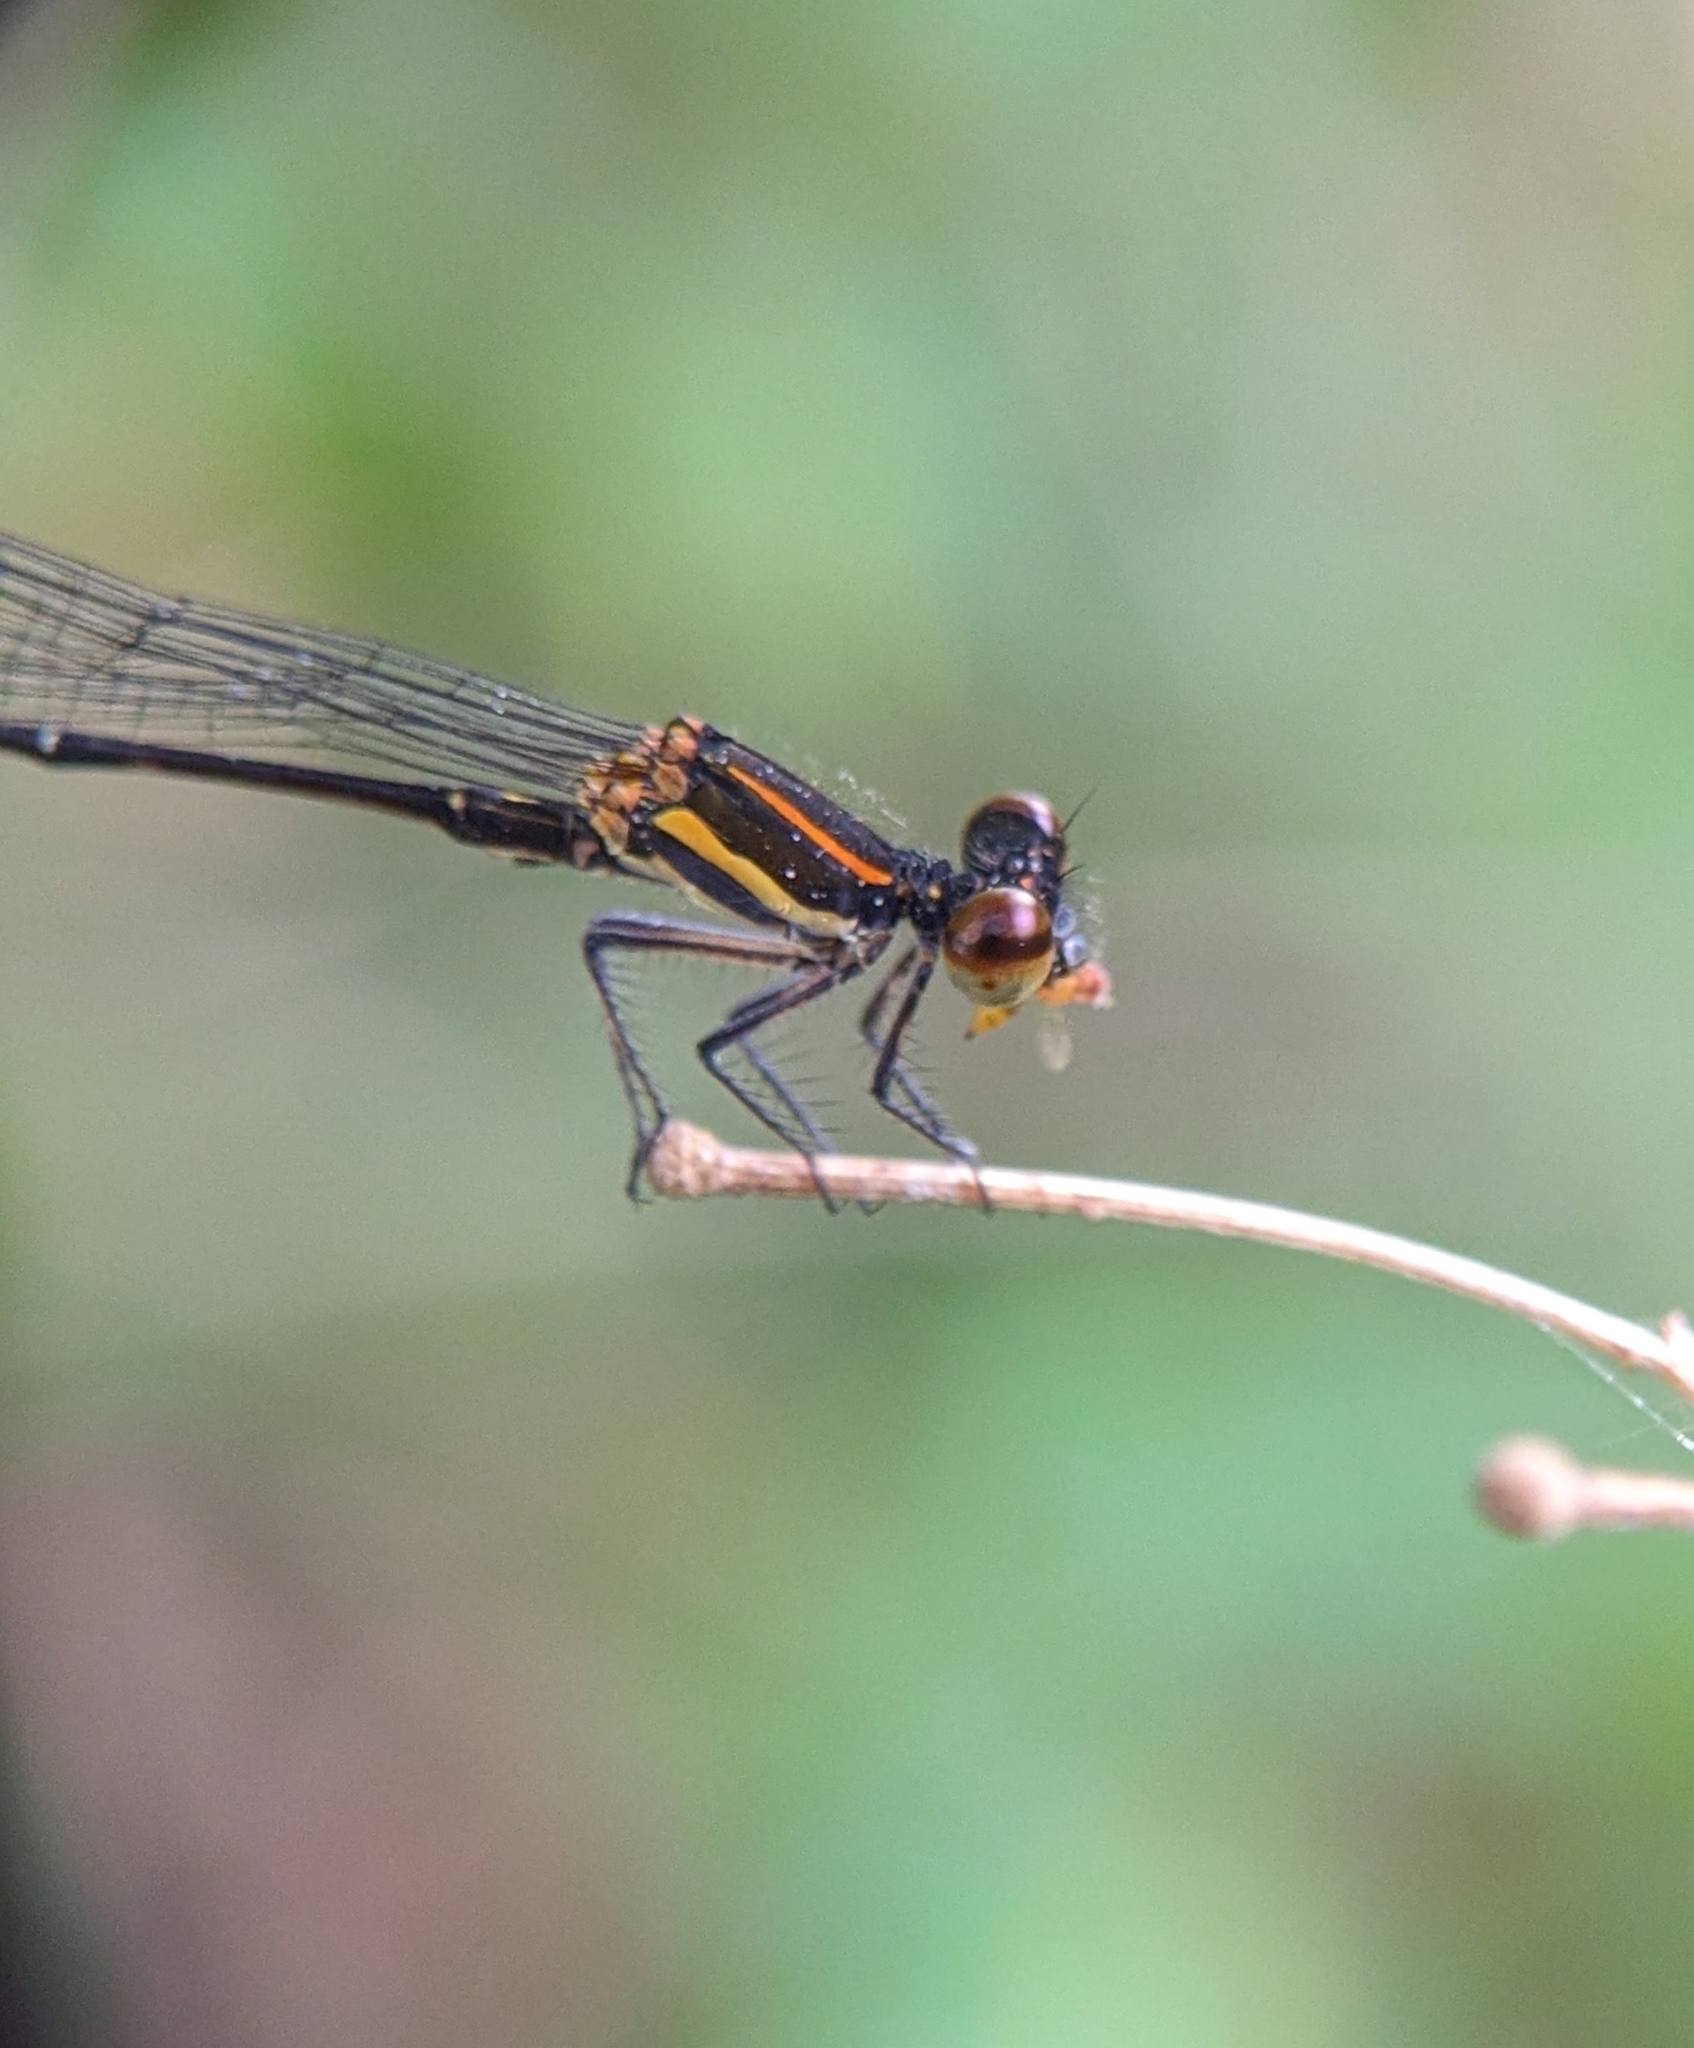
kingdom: Animalia
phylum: Arthropoda
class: Insecta
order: Odonata
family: Platycnemididae
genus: Prodasineura
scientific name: Prodasineura verticalis
